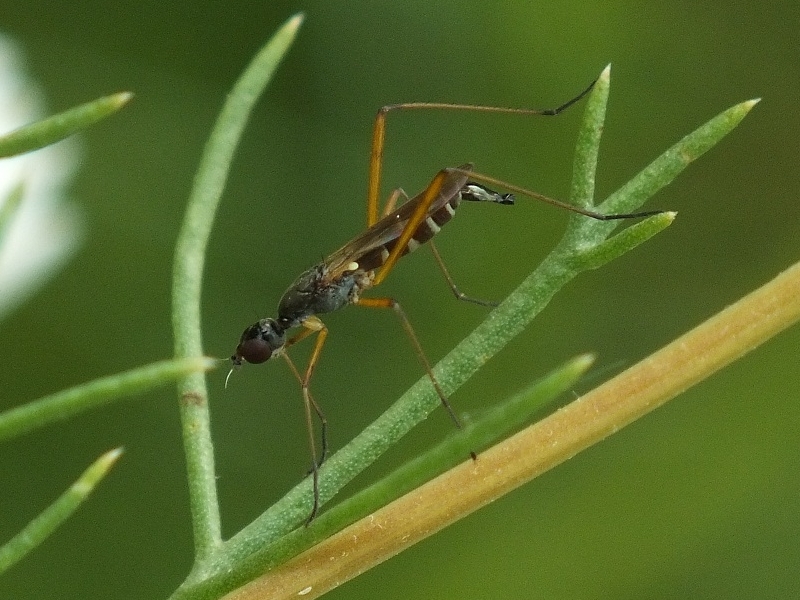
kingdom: Animalia
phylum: Arthropoda
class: Insecta
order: Diptera
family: Micropezidae
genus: Micropeza
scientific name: Micropeza corrigiolata
